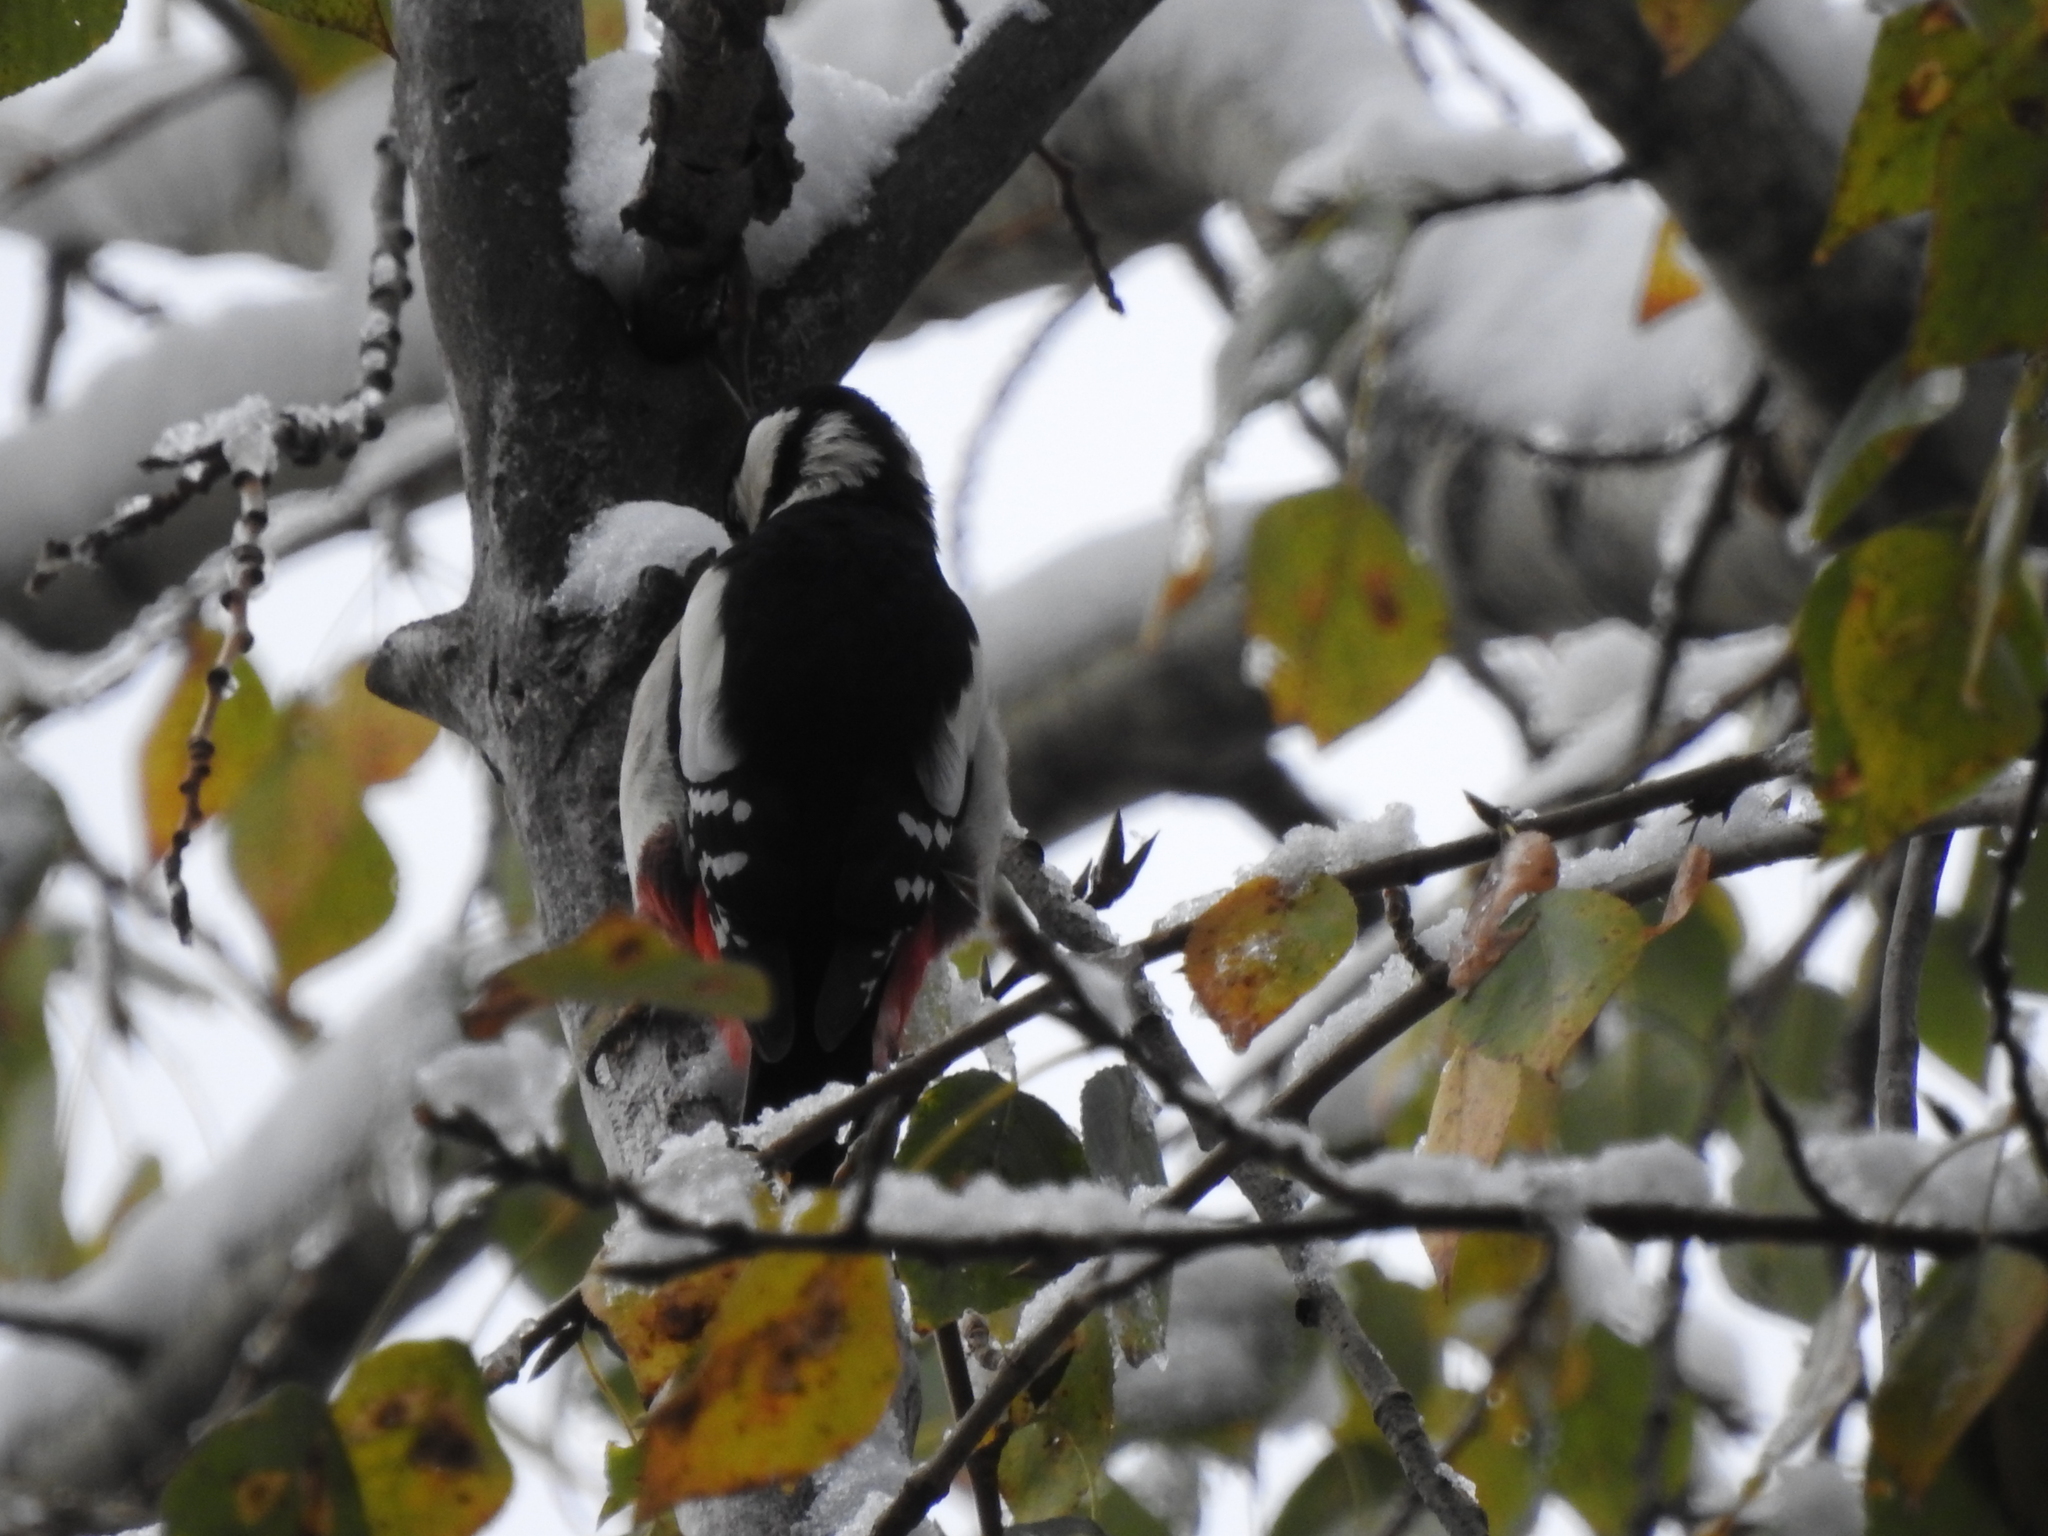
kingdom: Animalia
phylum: Chordata
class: Aves
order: Piciformes
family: Picidae
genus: Dendrocopos
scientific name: Dendrocopos major
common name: Great spotted woodpecker
